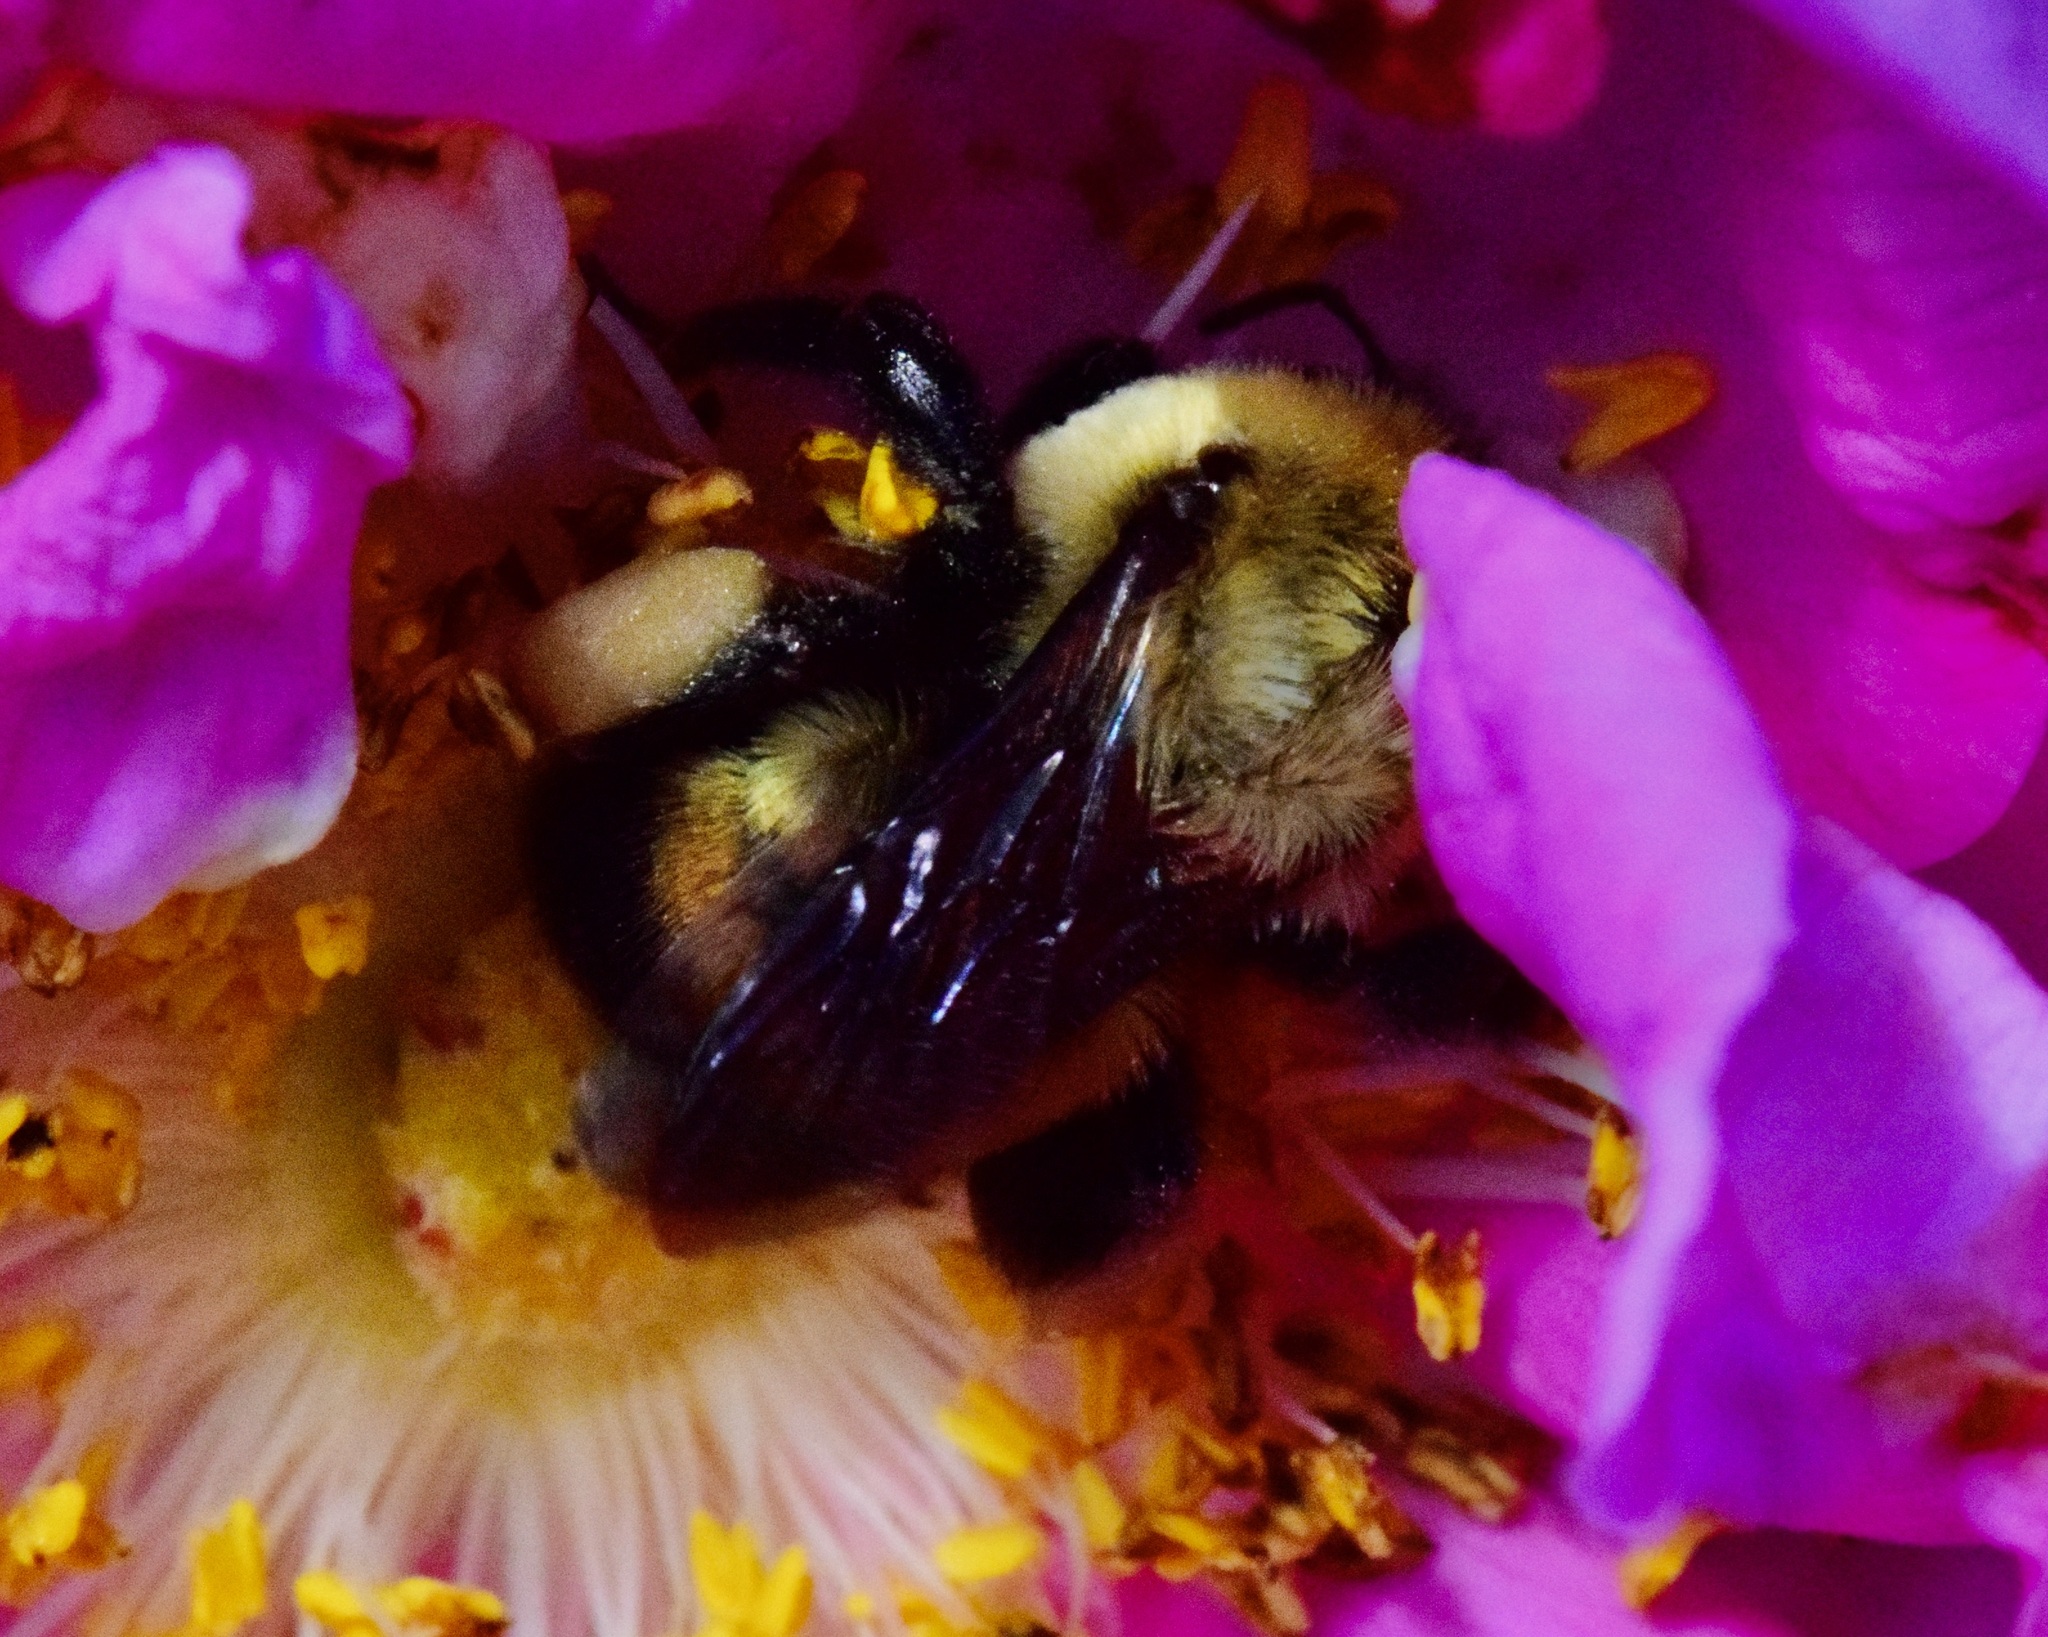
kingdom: Animalia
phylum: Arthropoda
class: Insecta
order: Hymenoptera
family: Apidae
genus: Bombus
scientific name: Bombus griseocollis
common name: Brown-belted bumble bee
